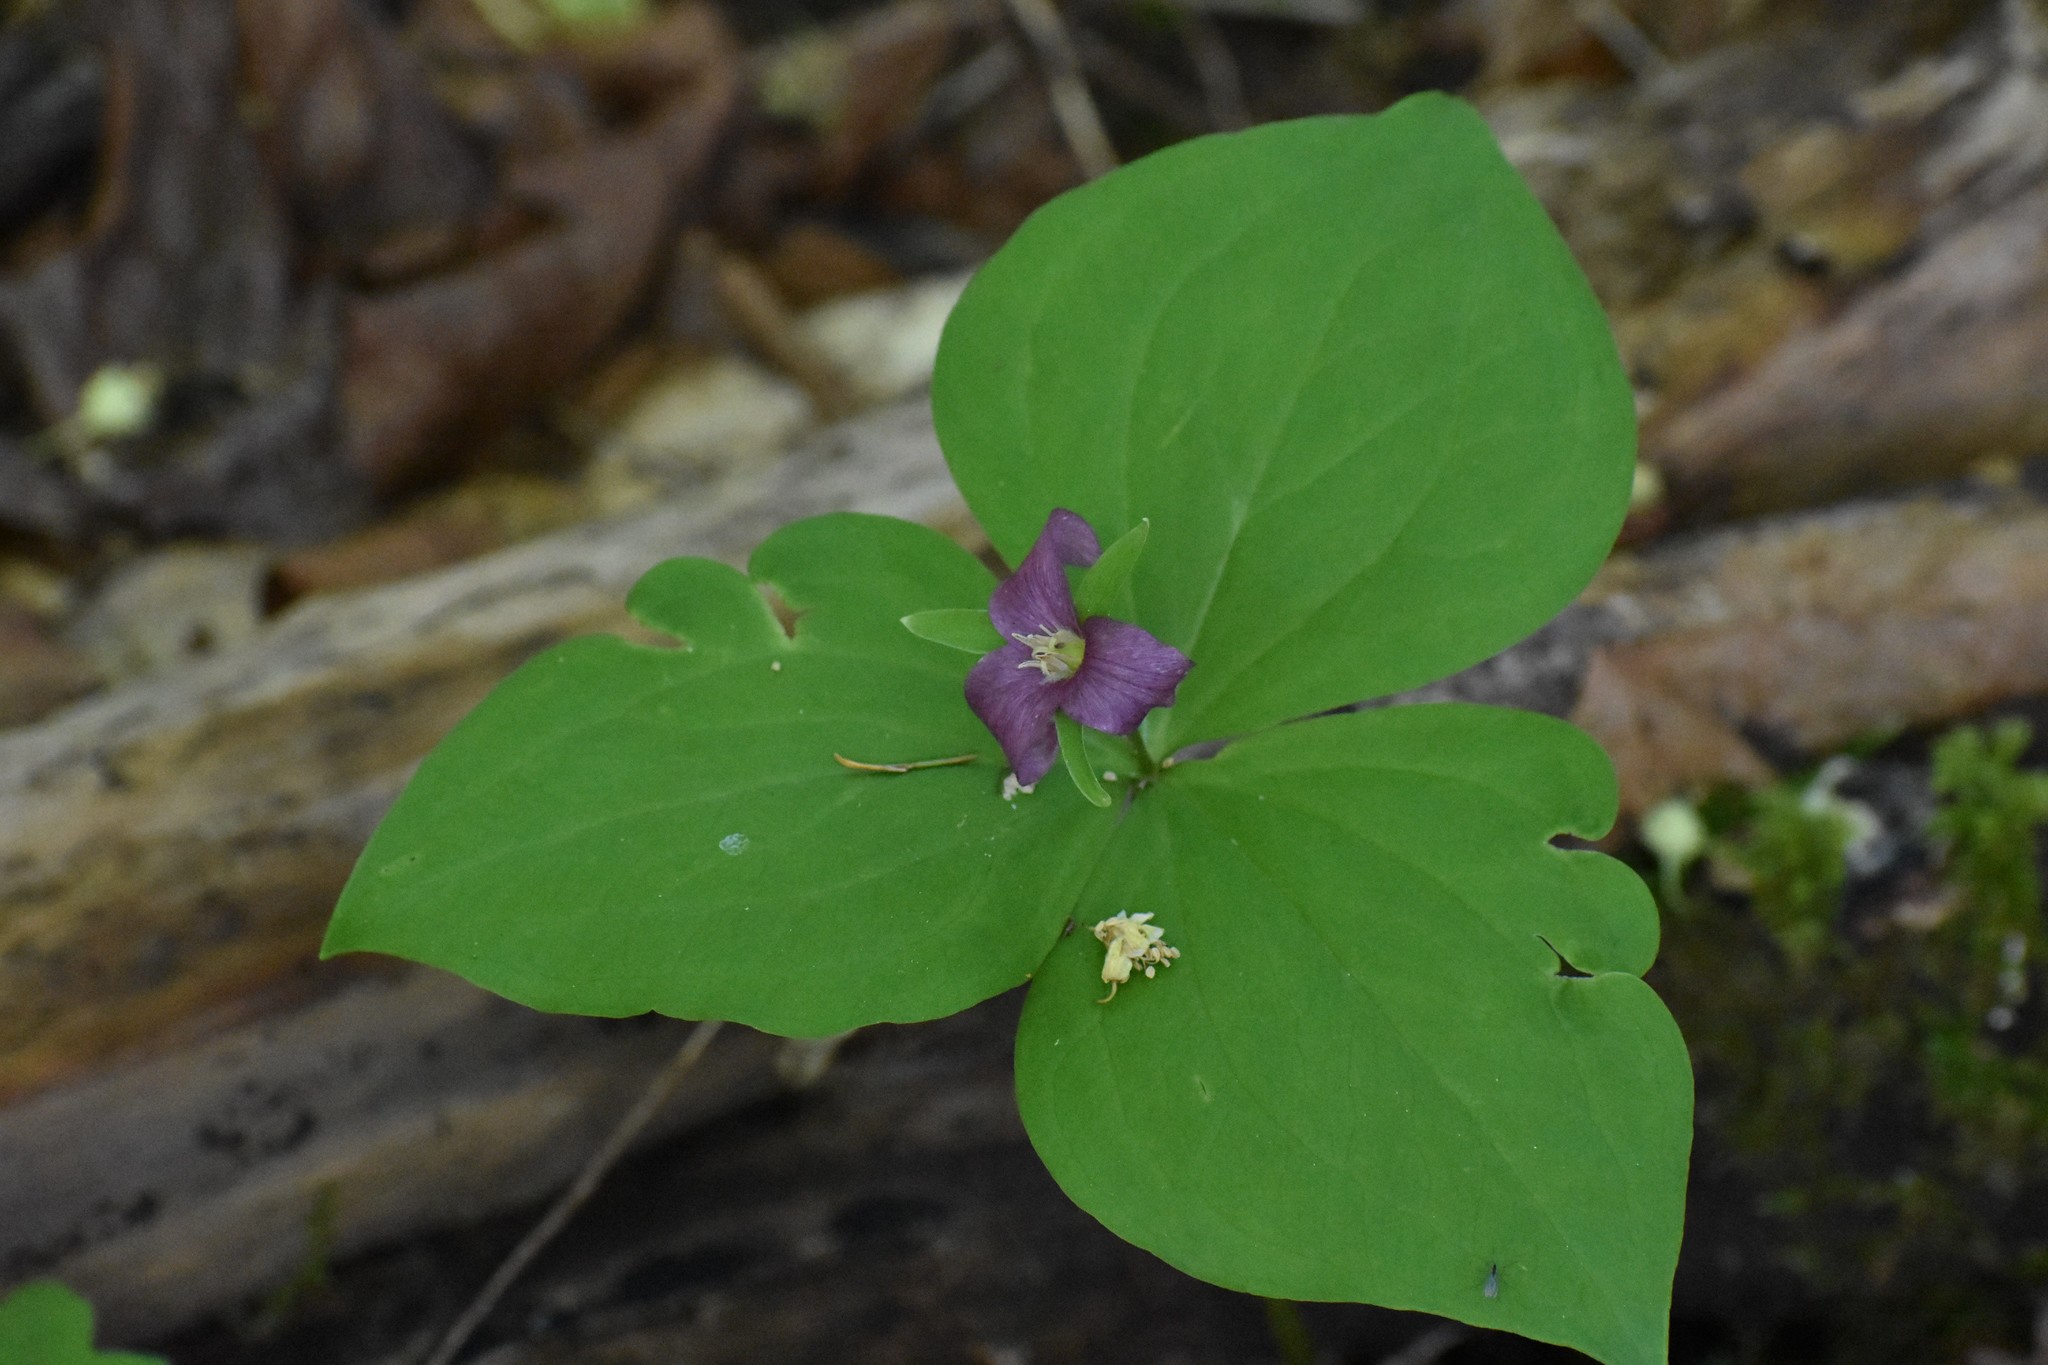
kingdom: Plantae
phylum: Tracheophyta
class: Liliopsida
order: Liliales
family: Melanthiaceae
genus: Trillium
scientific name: Trillium ovatum
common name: Pacific trillium
